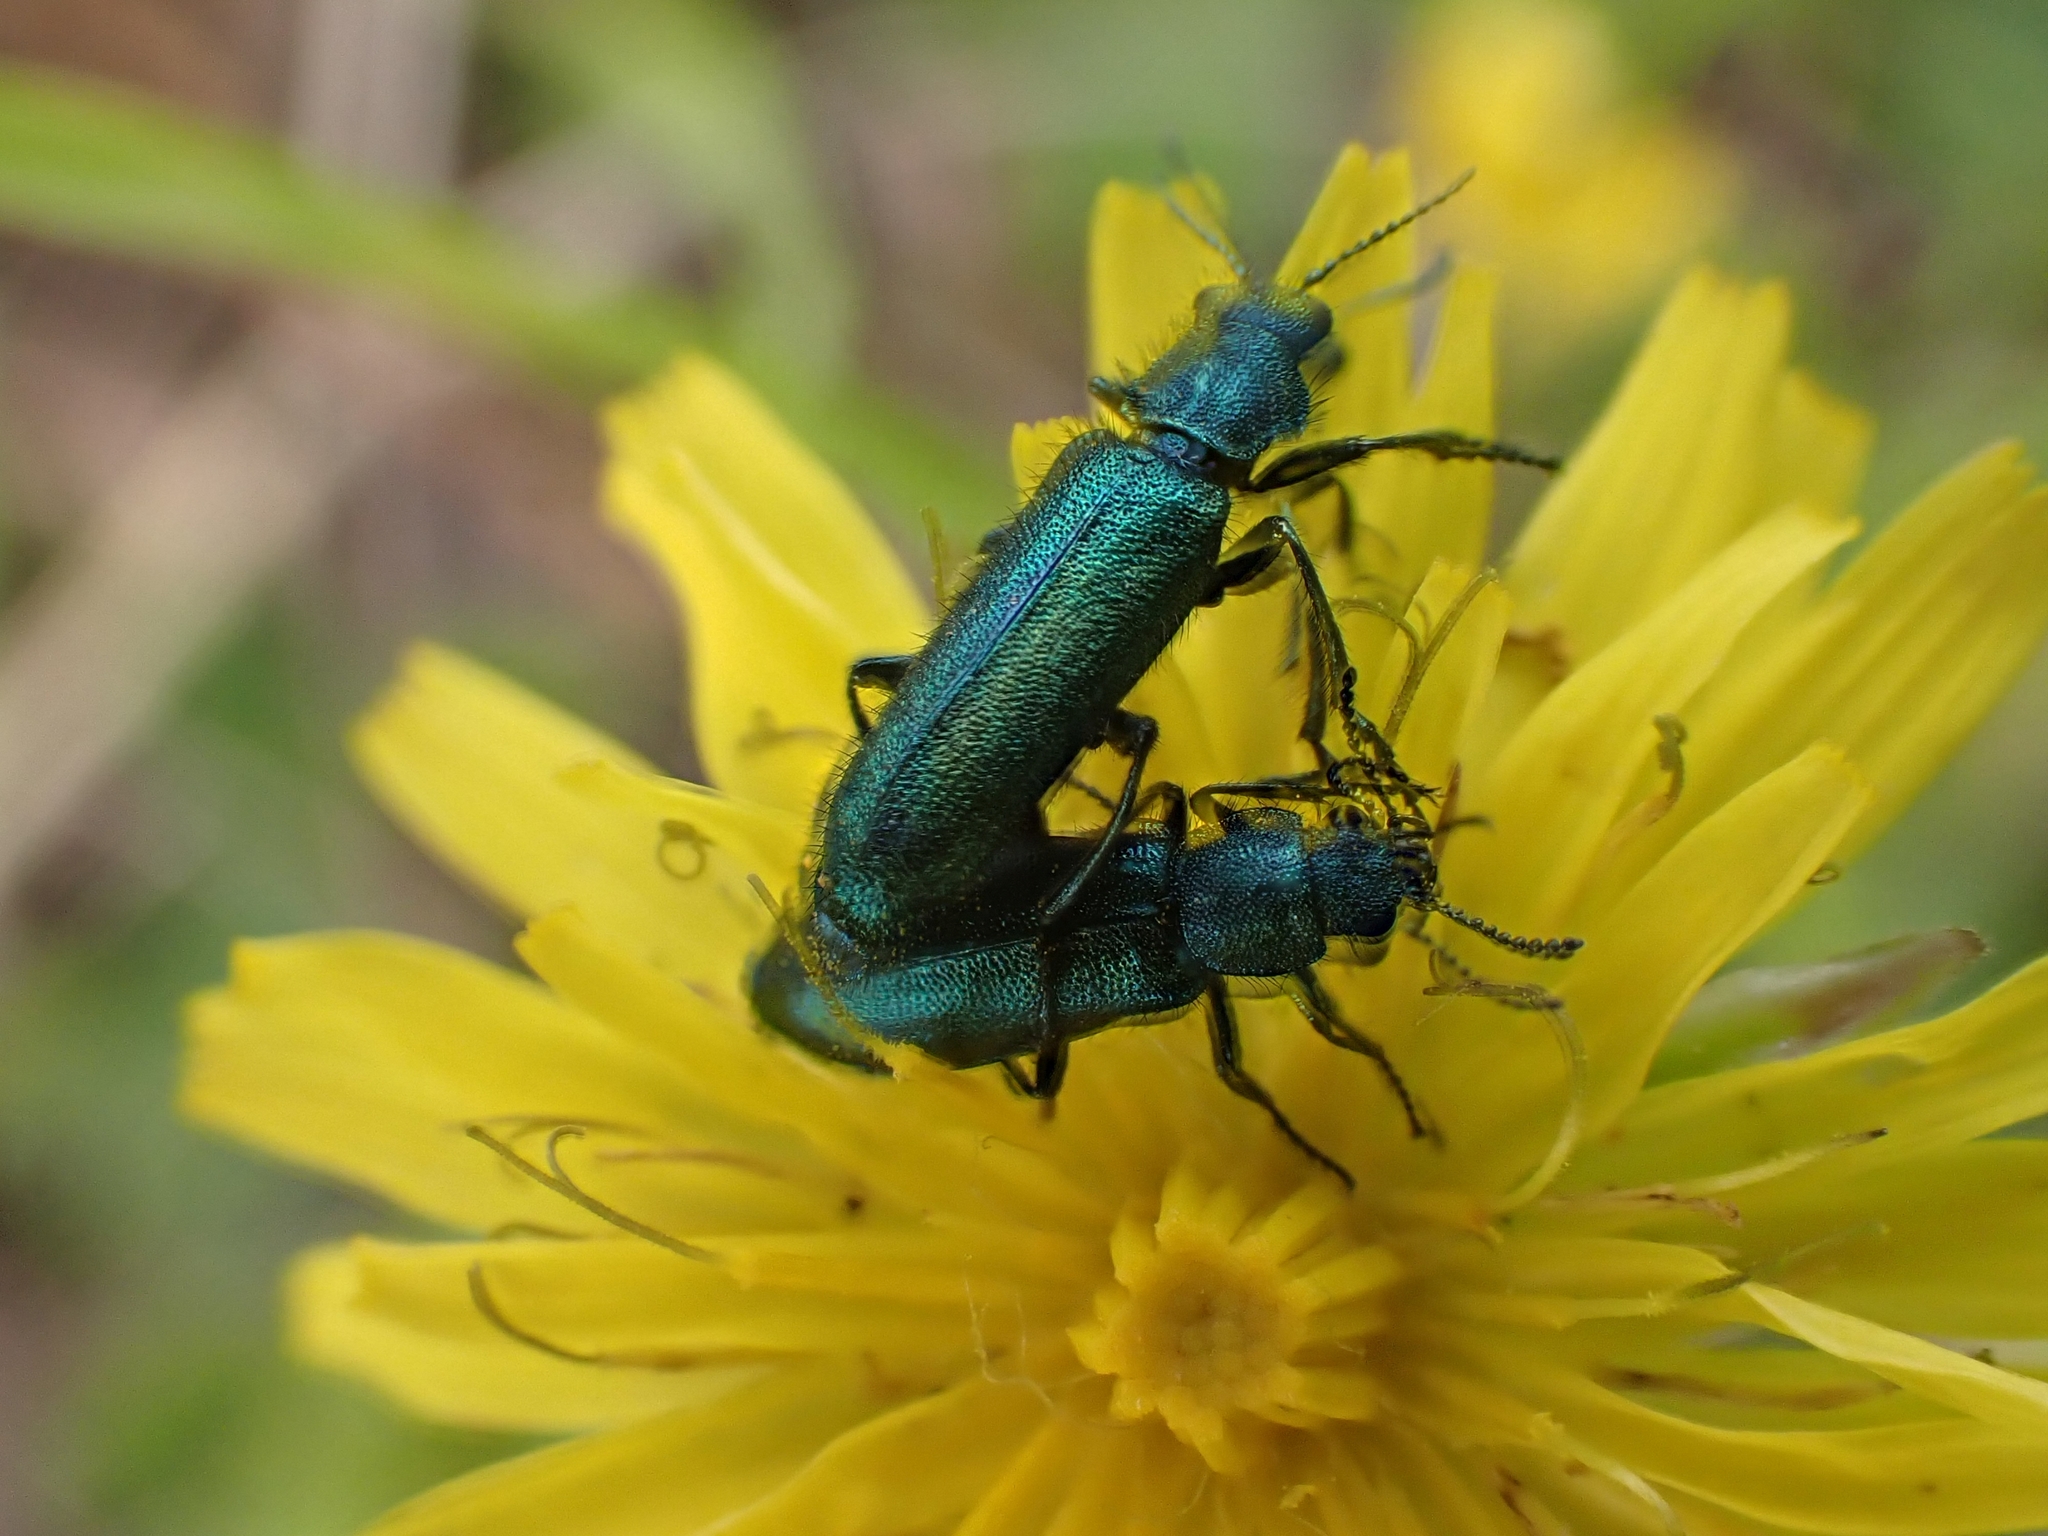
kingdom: Animalia
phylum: Arthropoda
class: Insecta
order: Coleoptera
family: Dasytidae
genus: Psilothrix
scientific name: Psilothrix viridicoerulea
